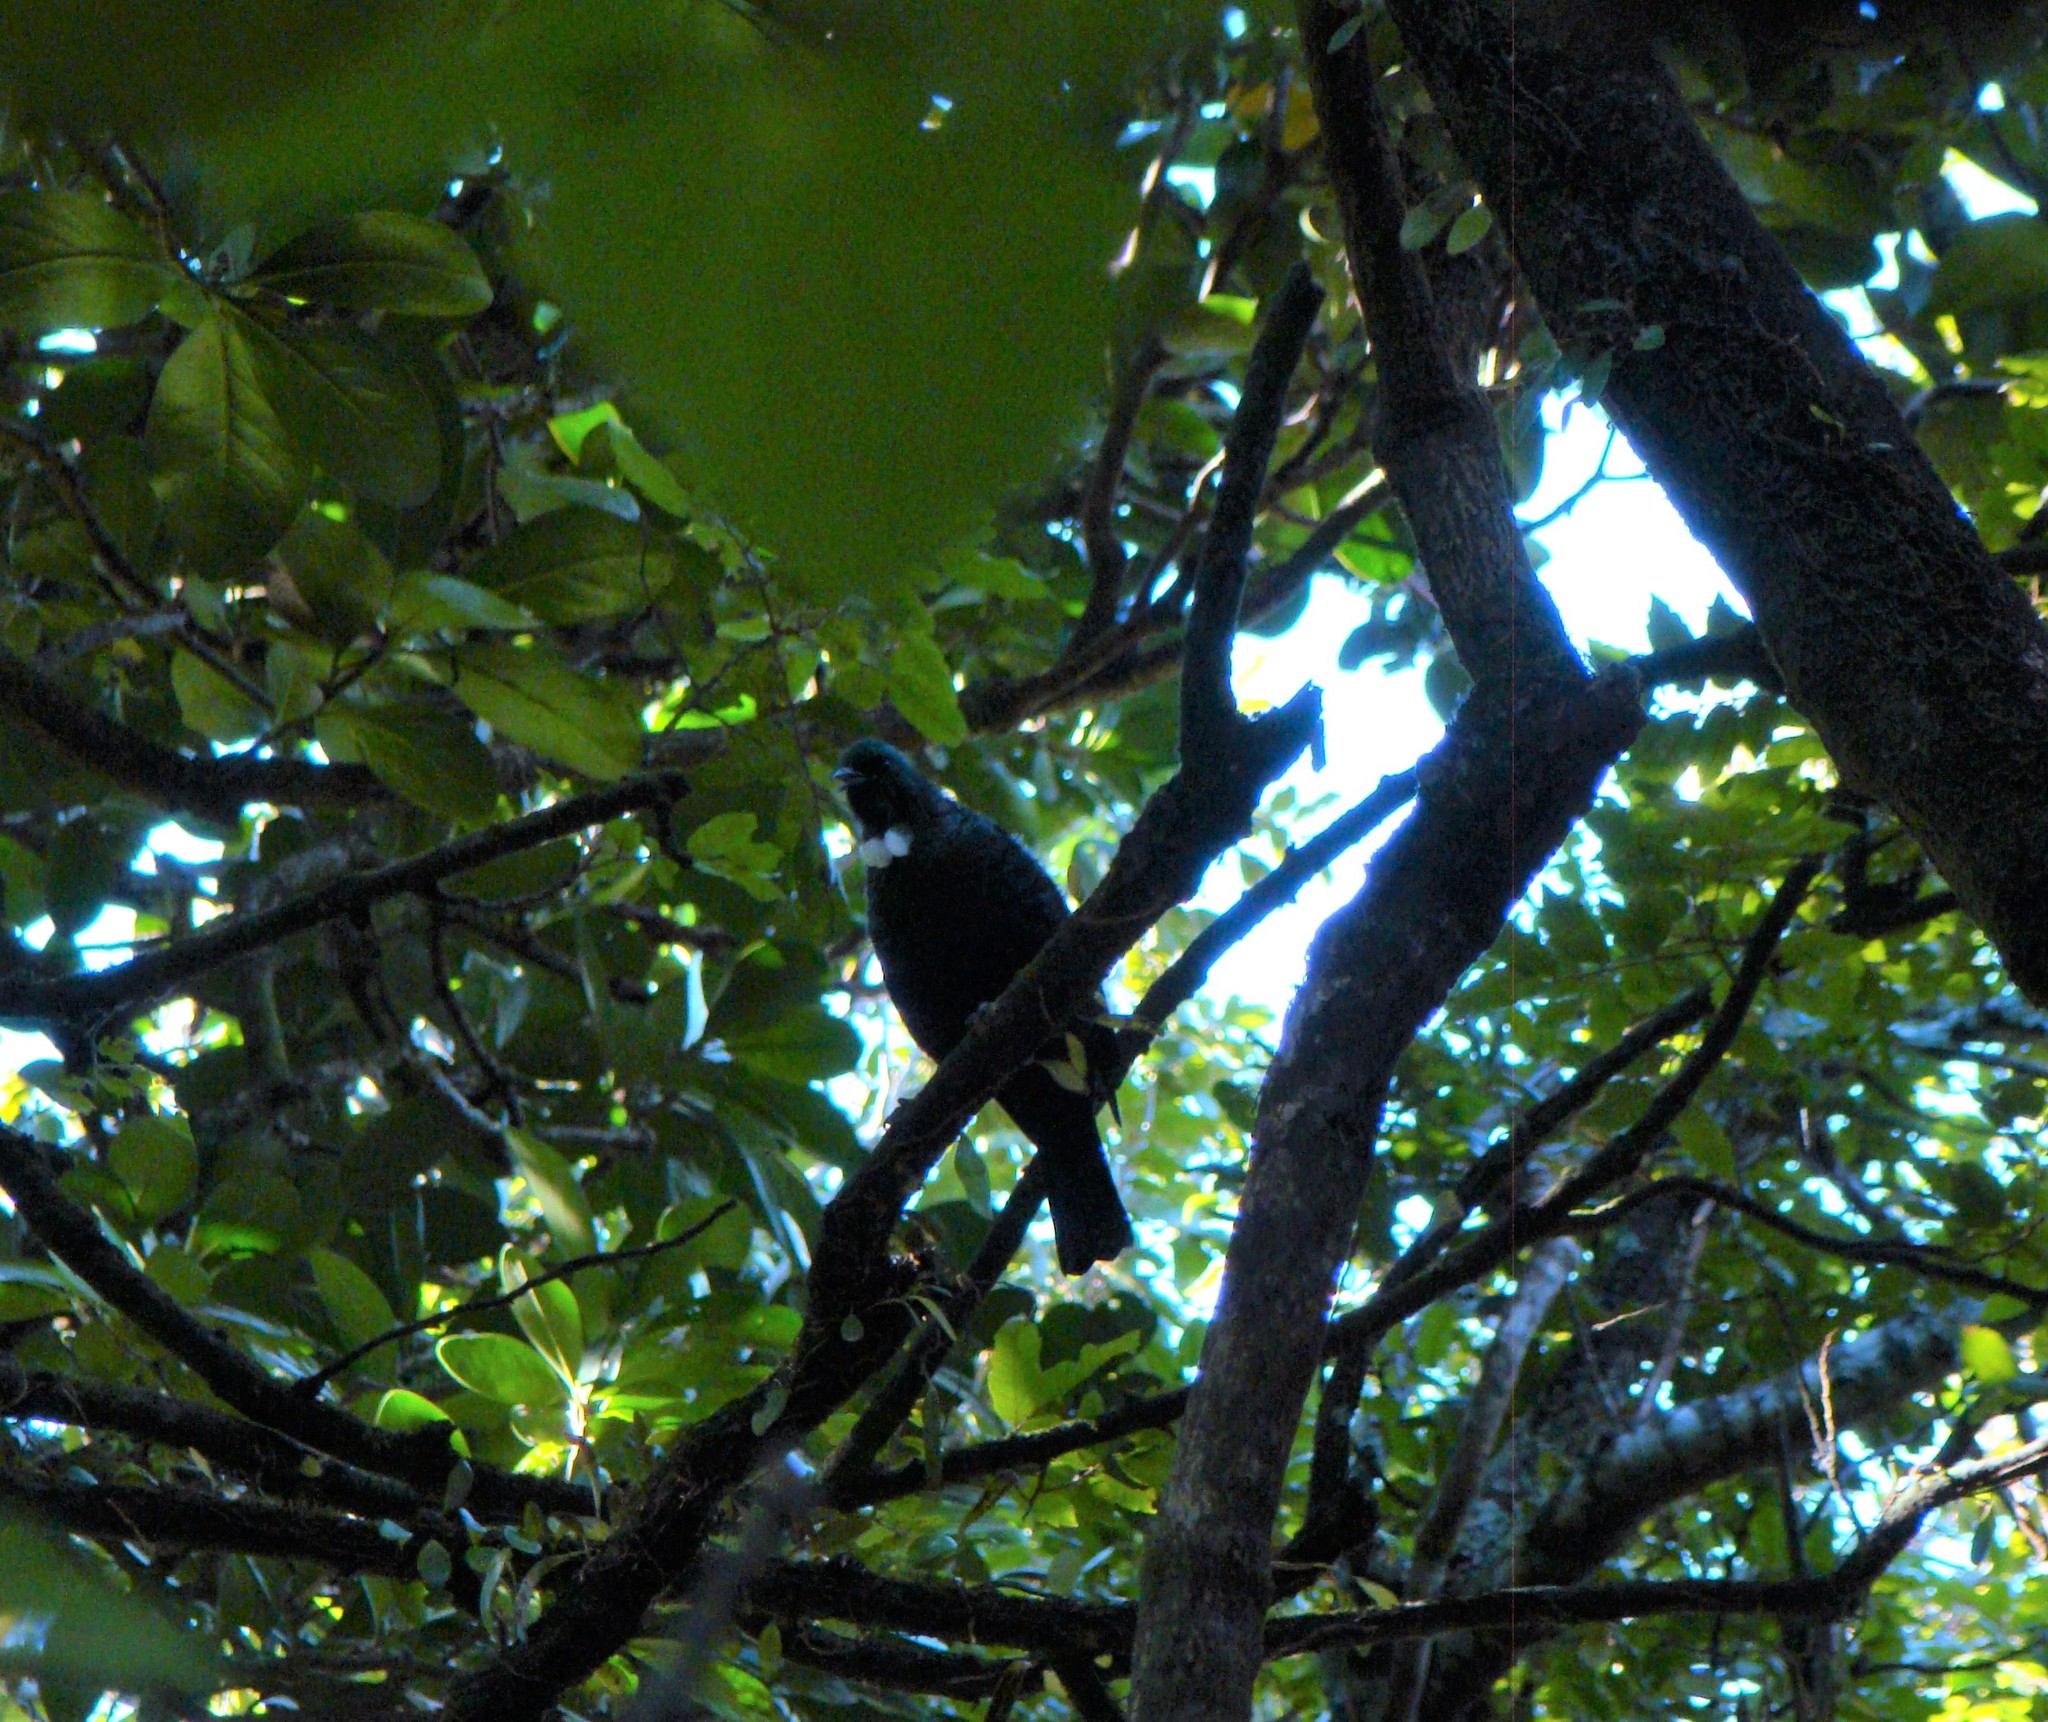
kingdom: Animalia
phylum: Chordata
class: Aves
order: Passeriformes
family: Meliphagidae
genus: Prosthemadera
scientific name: Prosthemadera novaeseelandiae
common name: Tui
